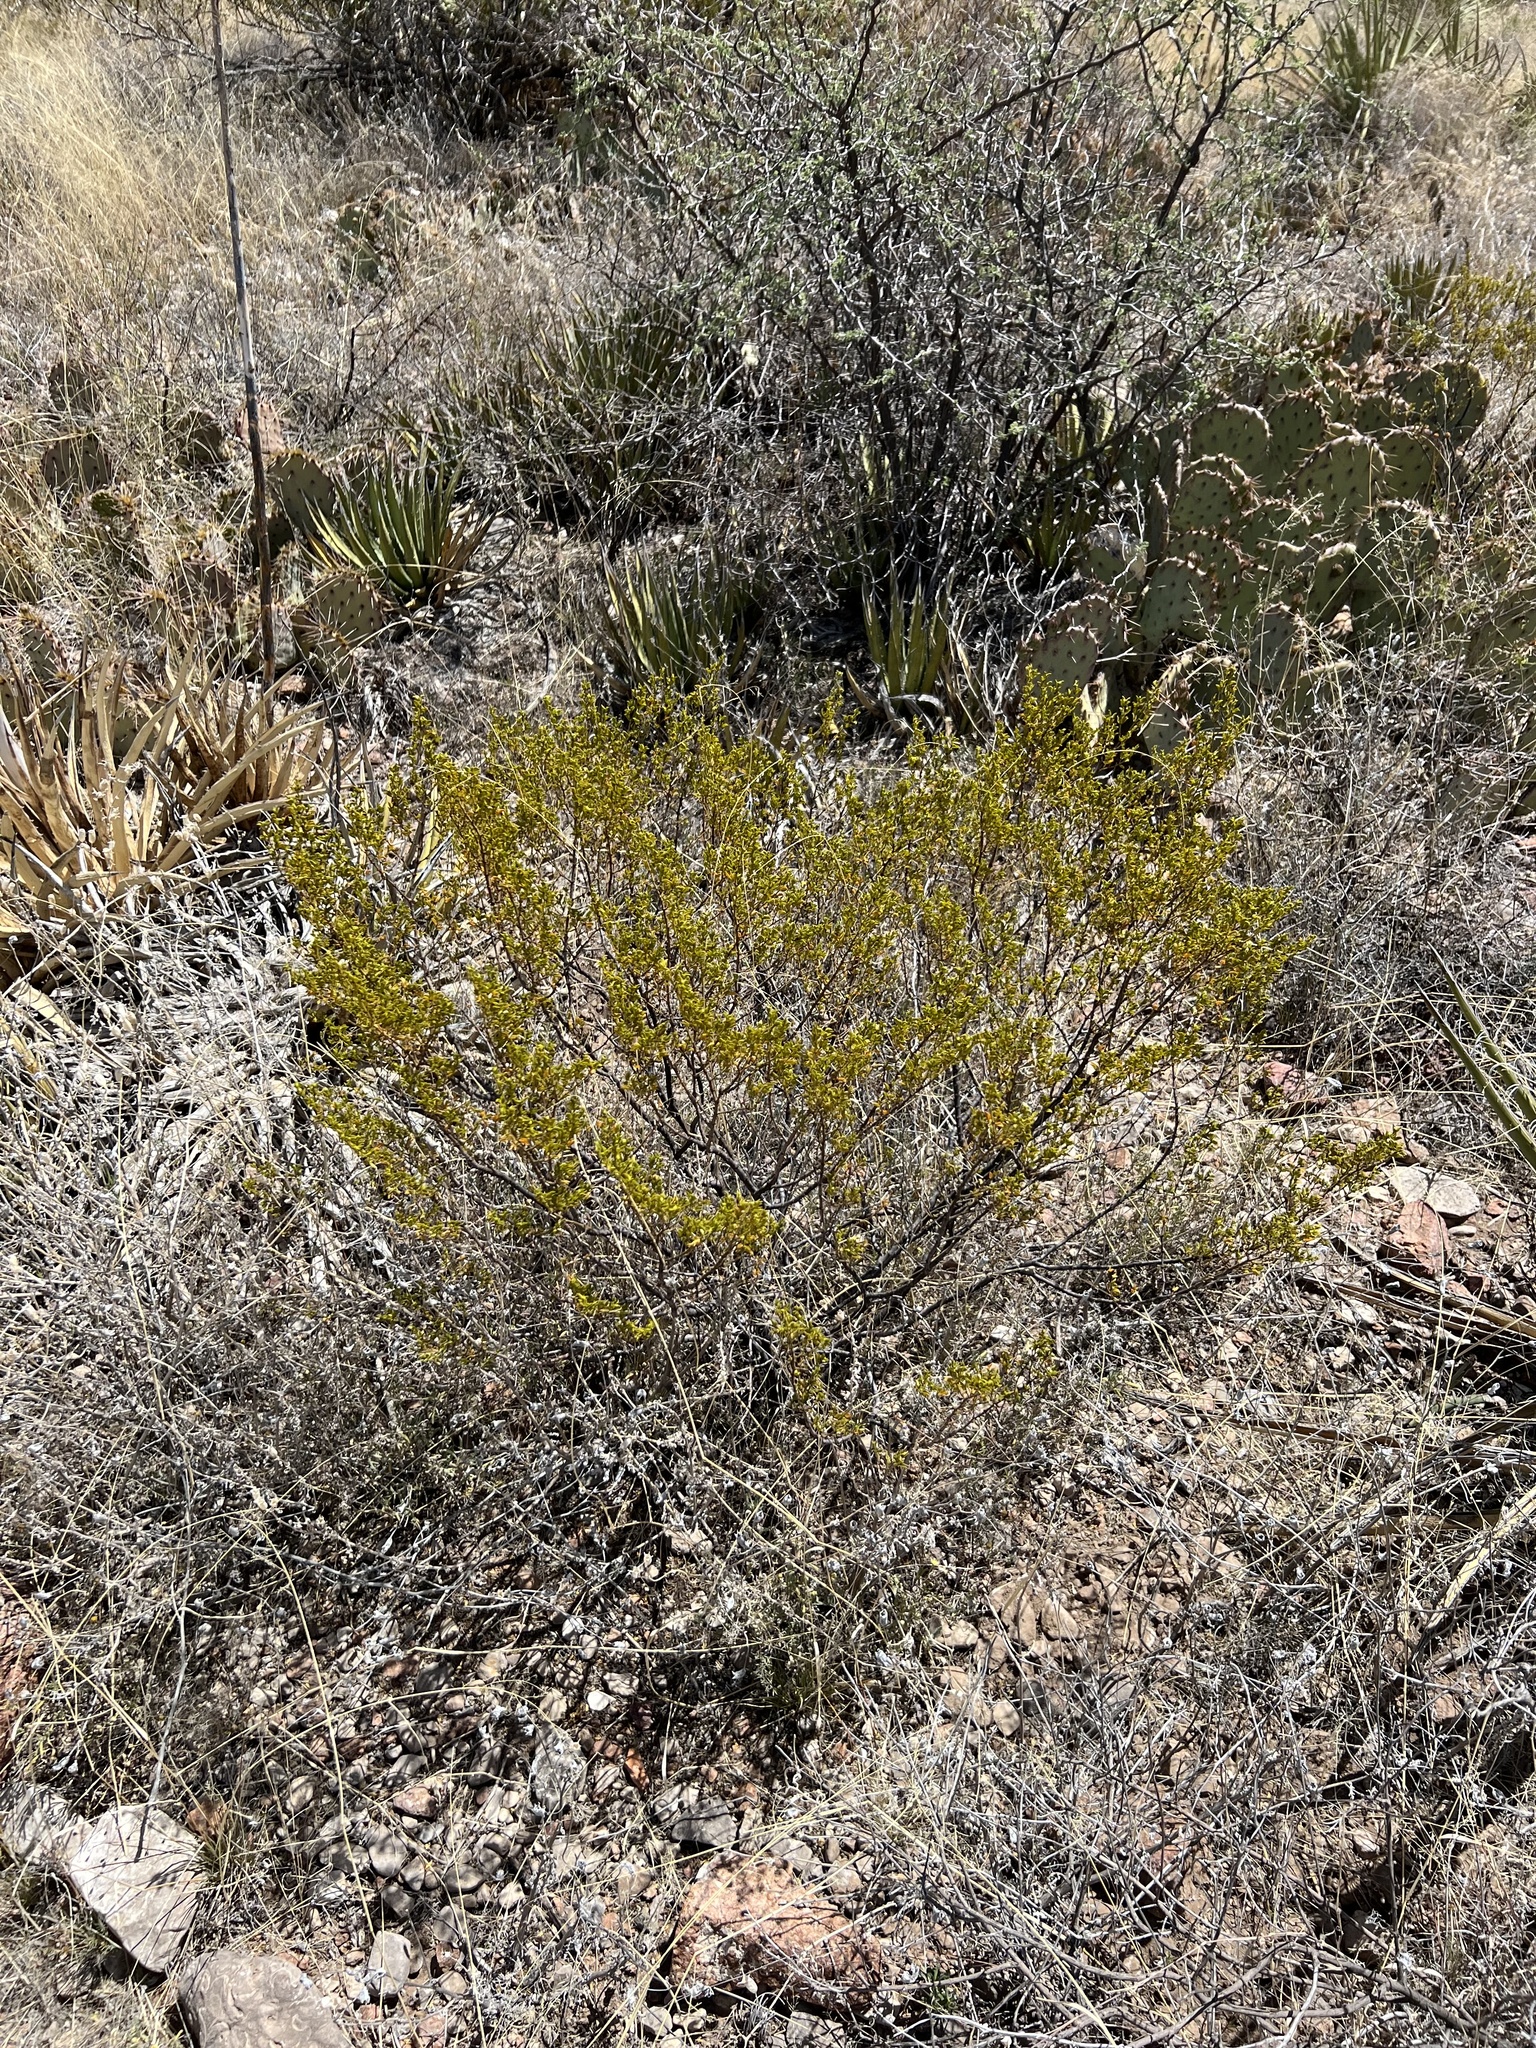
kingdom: Plantae
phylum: Tracheophyta
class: Magnoliopsida
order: Zygophyllales
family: Zygophyllaceae
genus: Larrea
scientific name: Larrea tridentata
